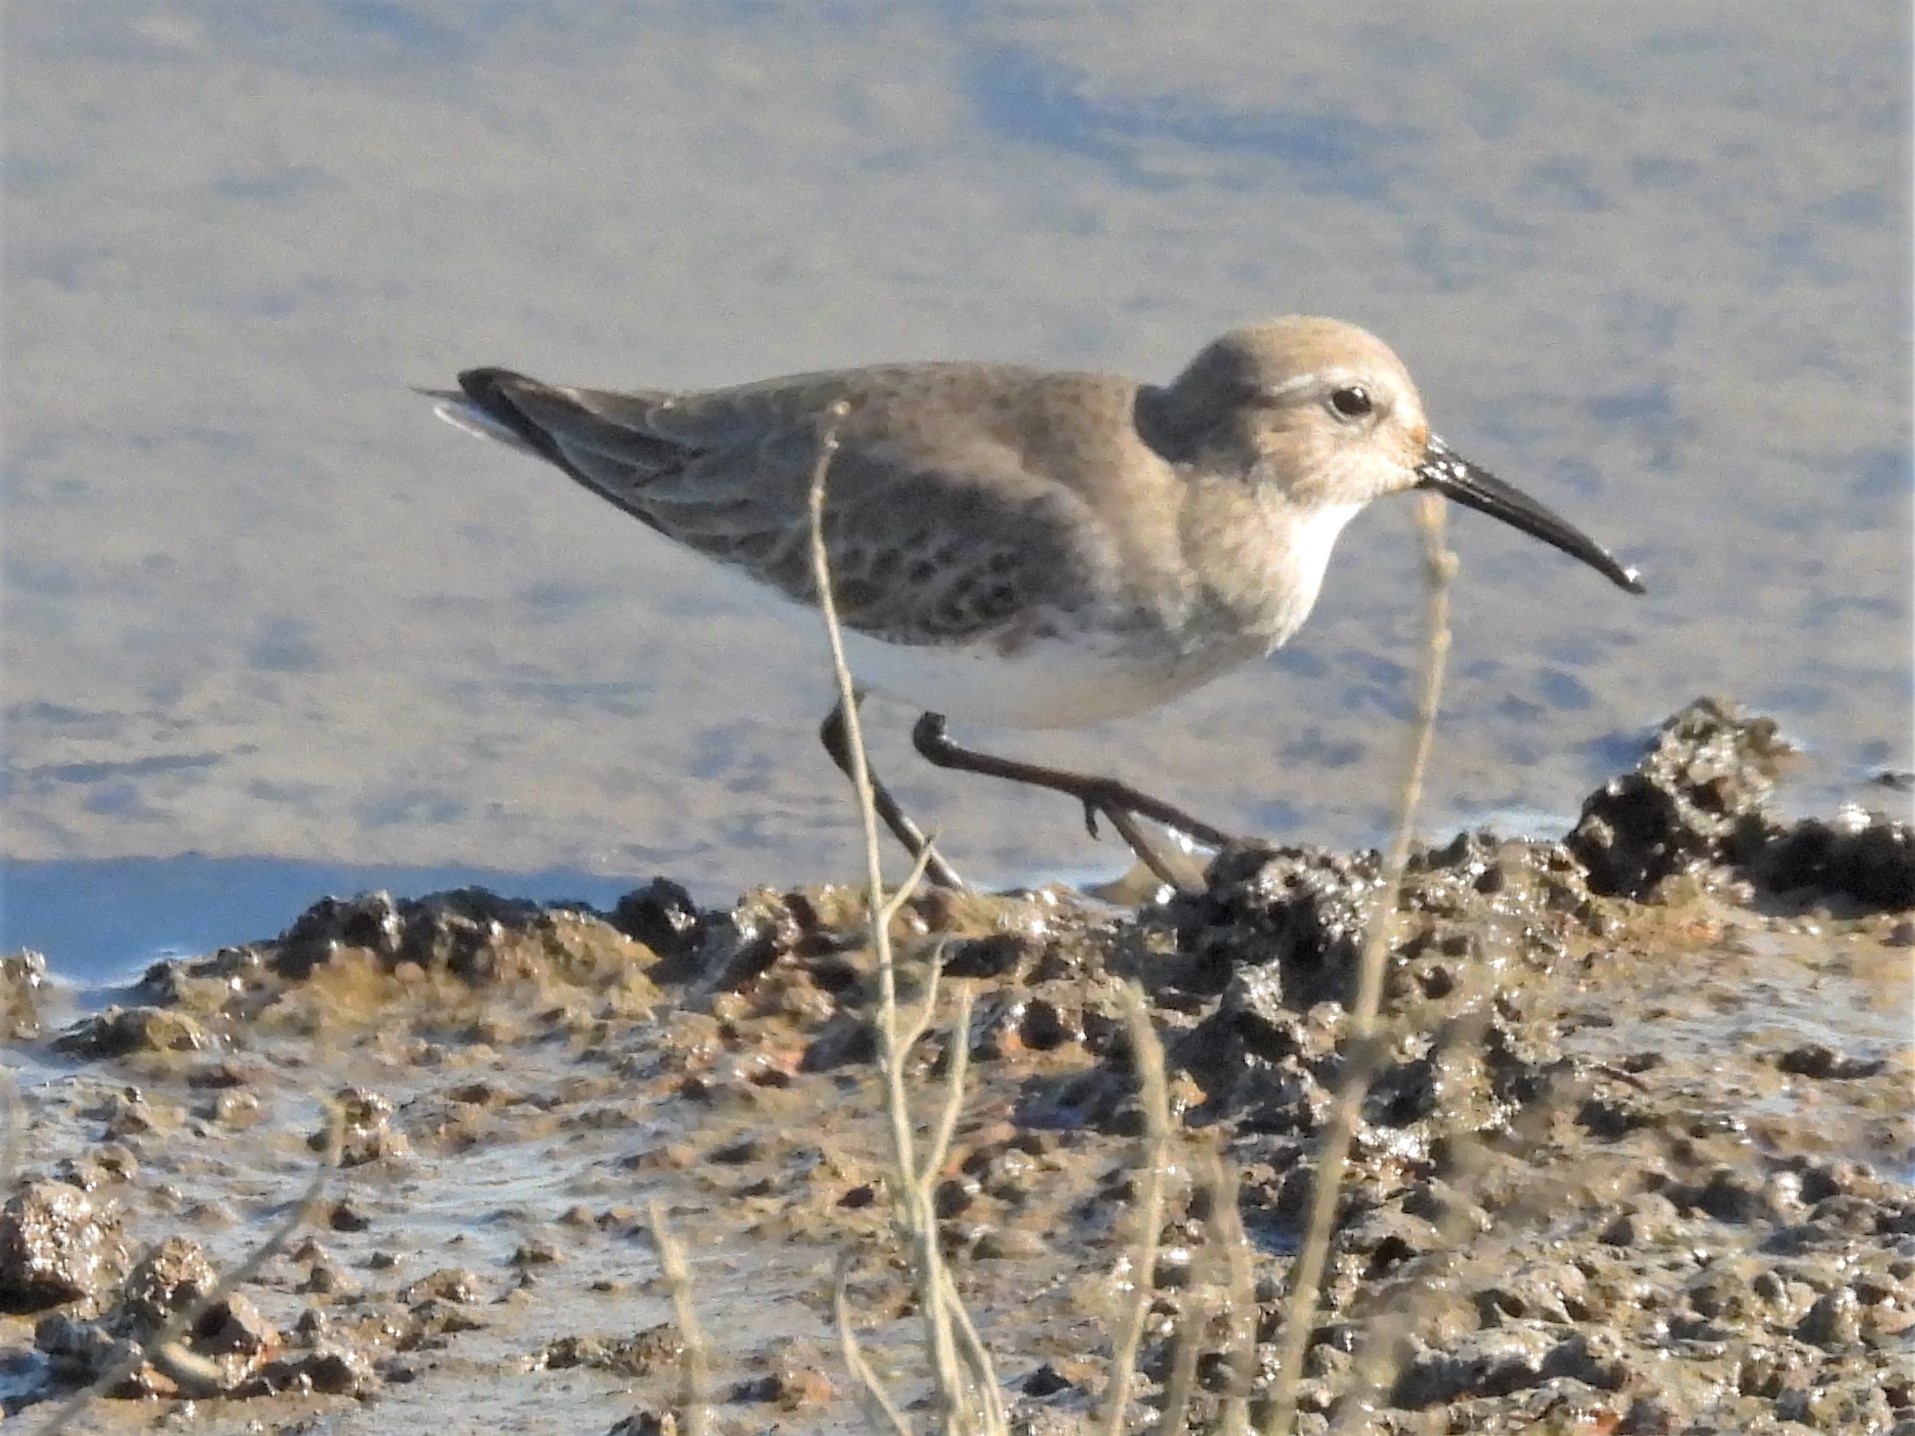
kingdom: Animalia
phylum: Chordata
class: Aves
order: Charadriiformes
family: Scolopacidae
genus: Calidris
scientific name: Calidris alpina
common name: Dunlin
